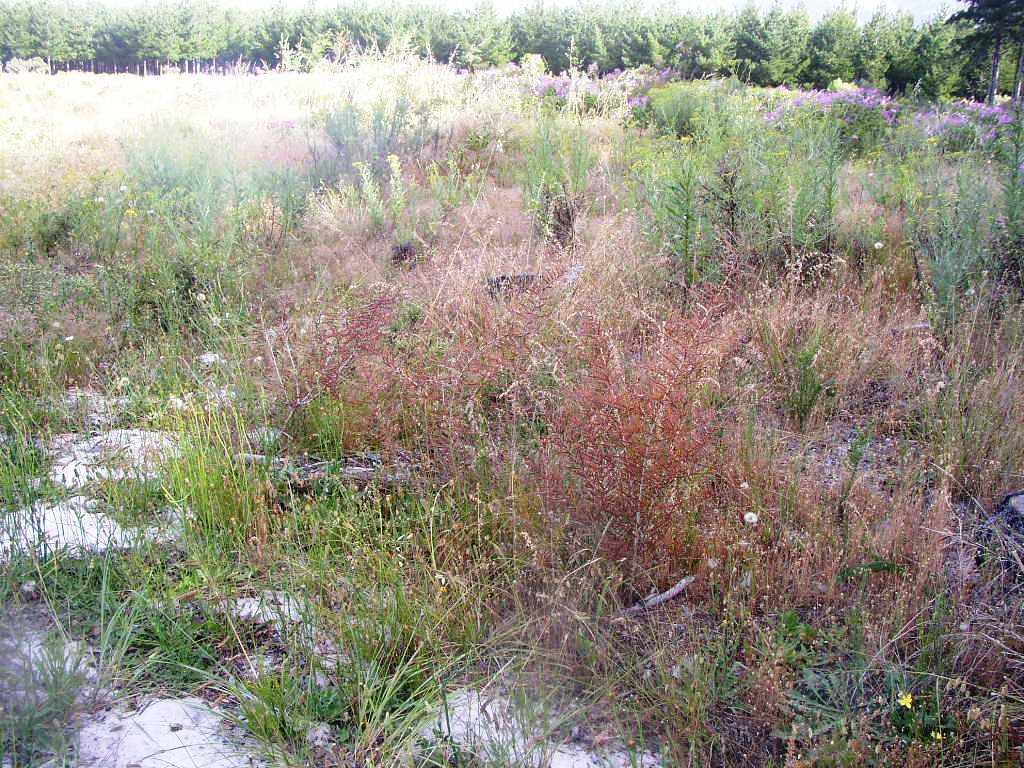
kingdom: Plantae
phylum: Tracheophyta
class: Magnoliopsida
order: Fabales
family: Fabaceae
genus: Aspalathus
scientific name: Aspalathus hispida
